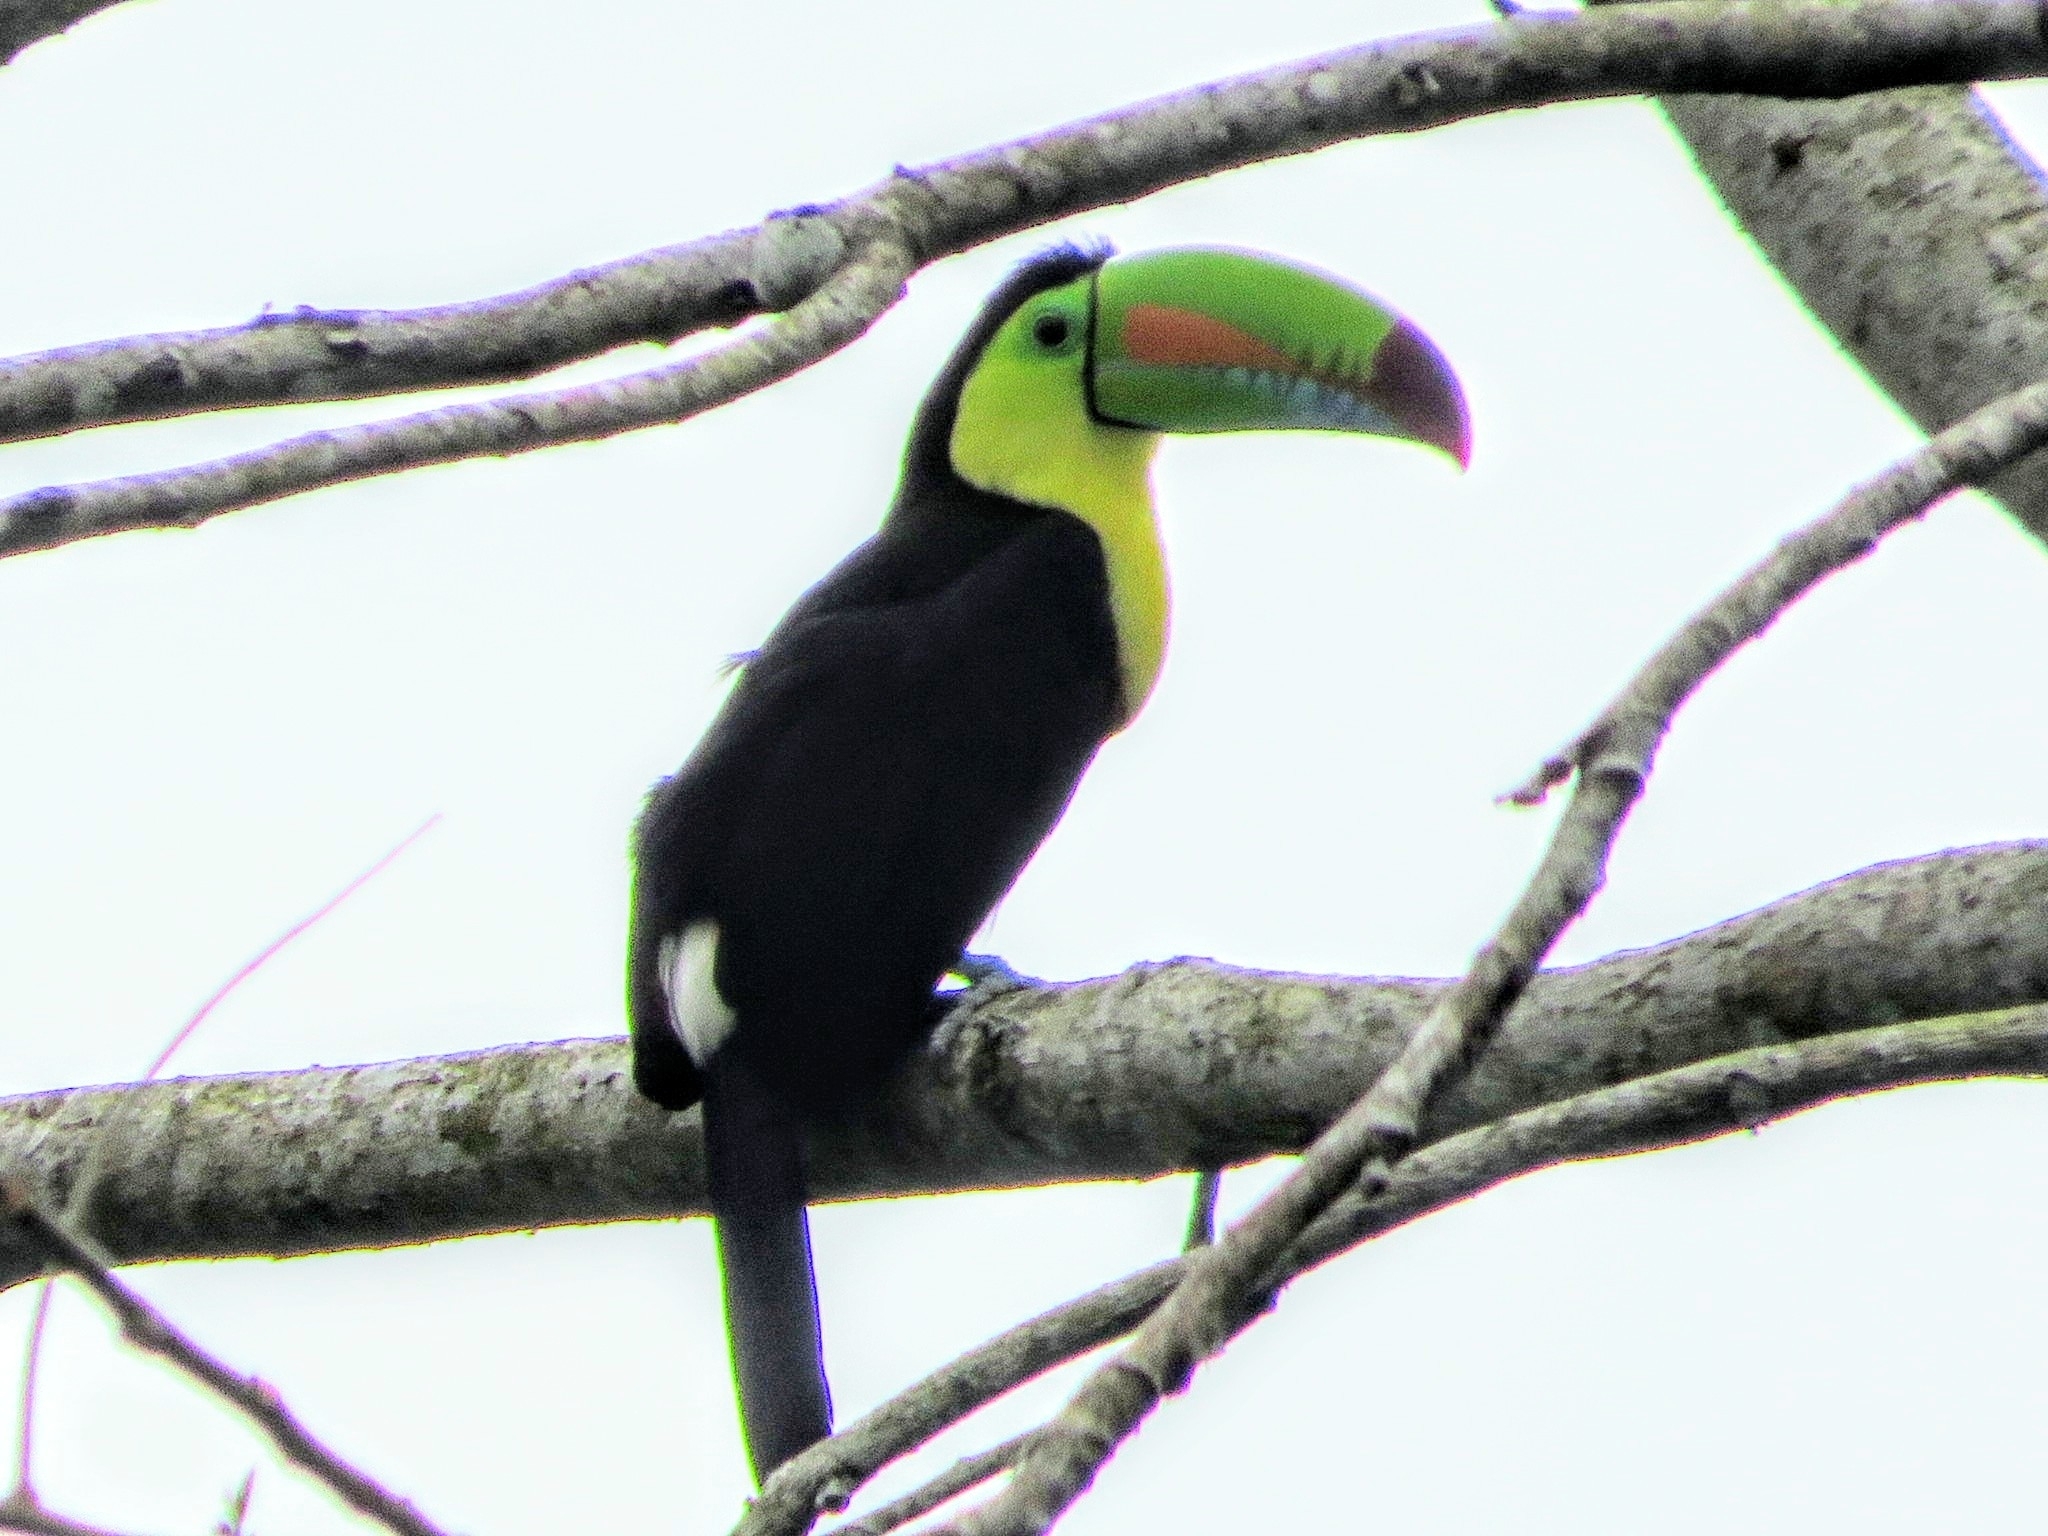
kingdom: Animalia
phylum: Chordata
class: Aves
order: Piciformes
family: Ramphastidae
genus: Ramphastos
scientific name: Ramphastos sulfuratus
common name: Keel-billed toucan
